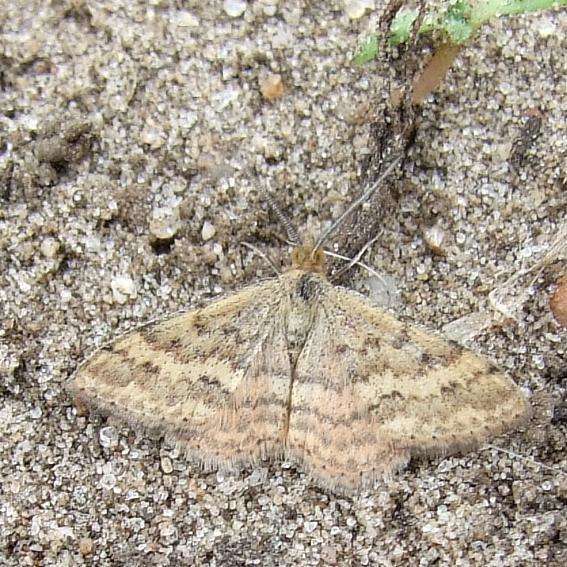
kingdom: Animalia
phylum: Arthropoda
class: Insecta
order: Lepidoptera
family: Geometridae
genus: Scopula
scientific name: Scopula rubraria
